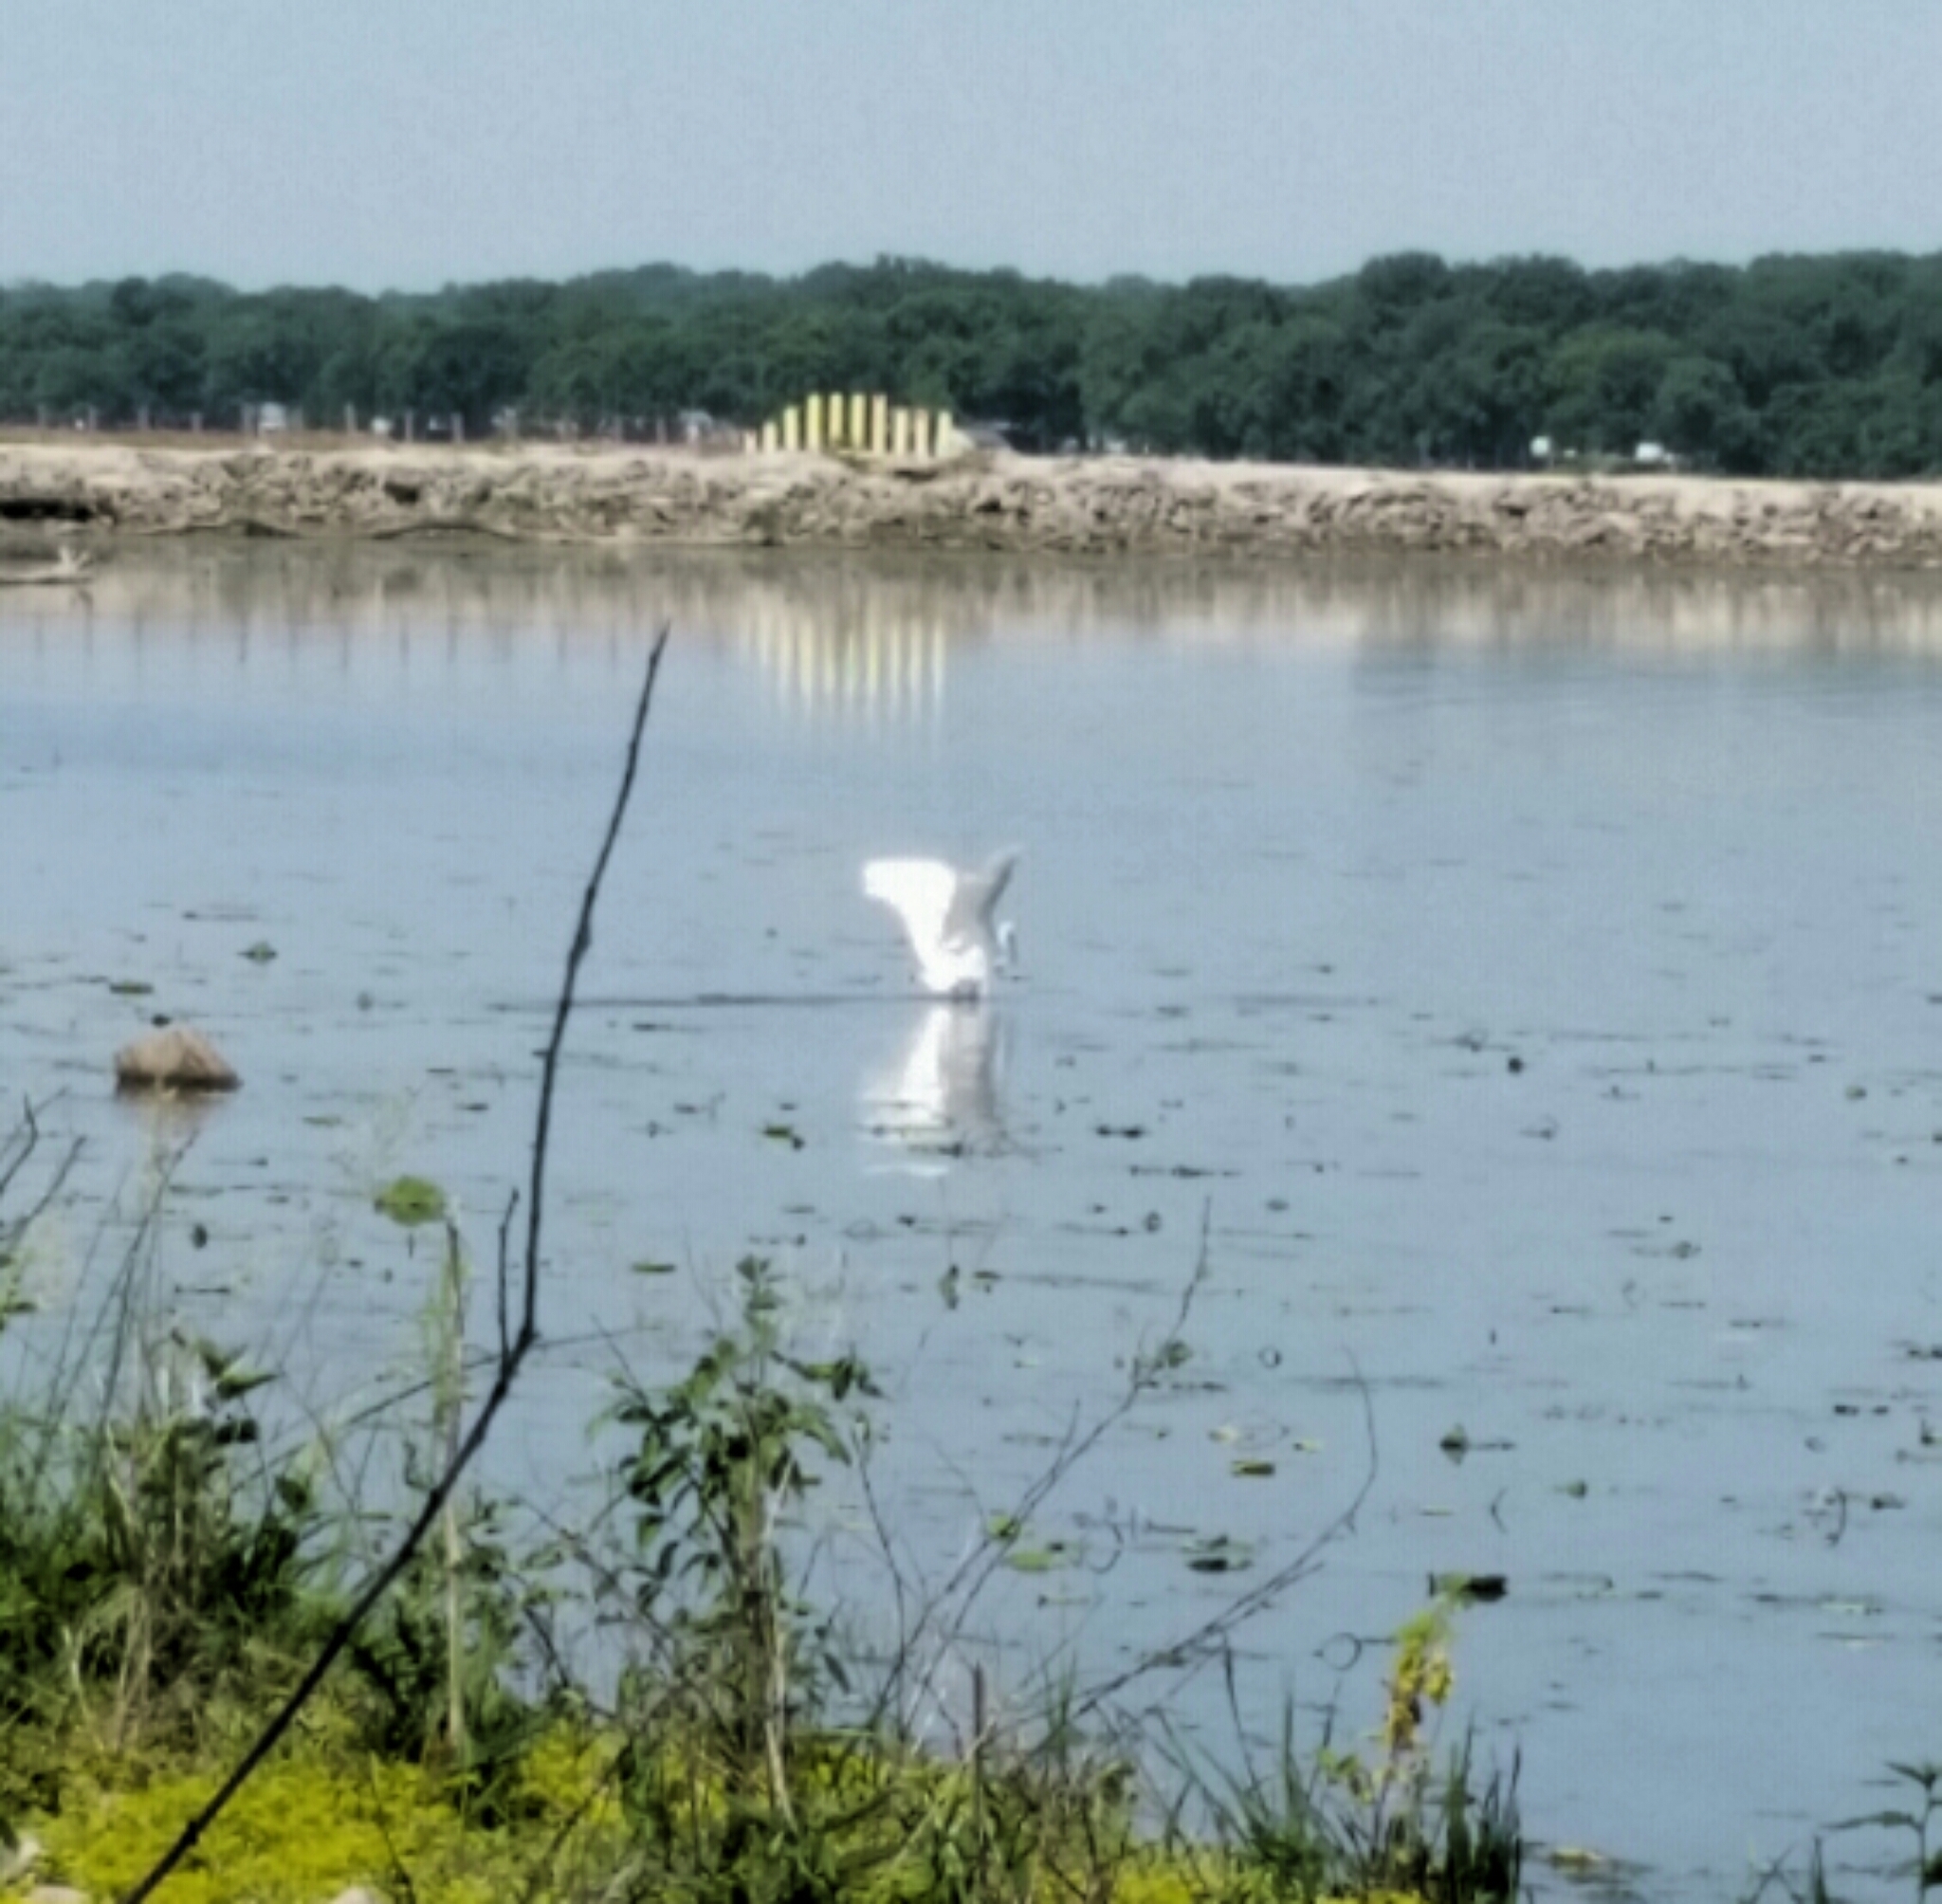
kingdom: Animalia
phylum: Chordata
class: Aves
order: Pelecaniformes
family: Ardeidae
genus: Ardea
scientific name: Ardea alba
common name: Great egret
